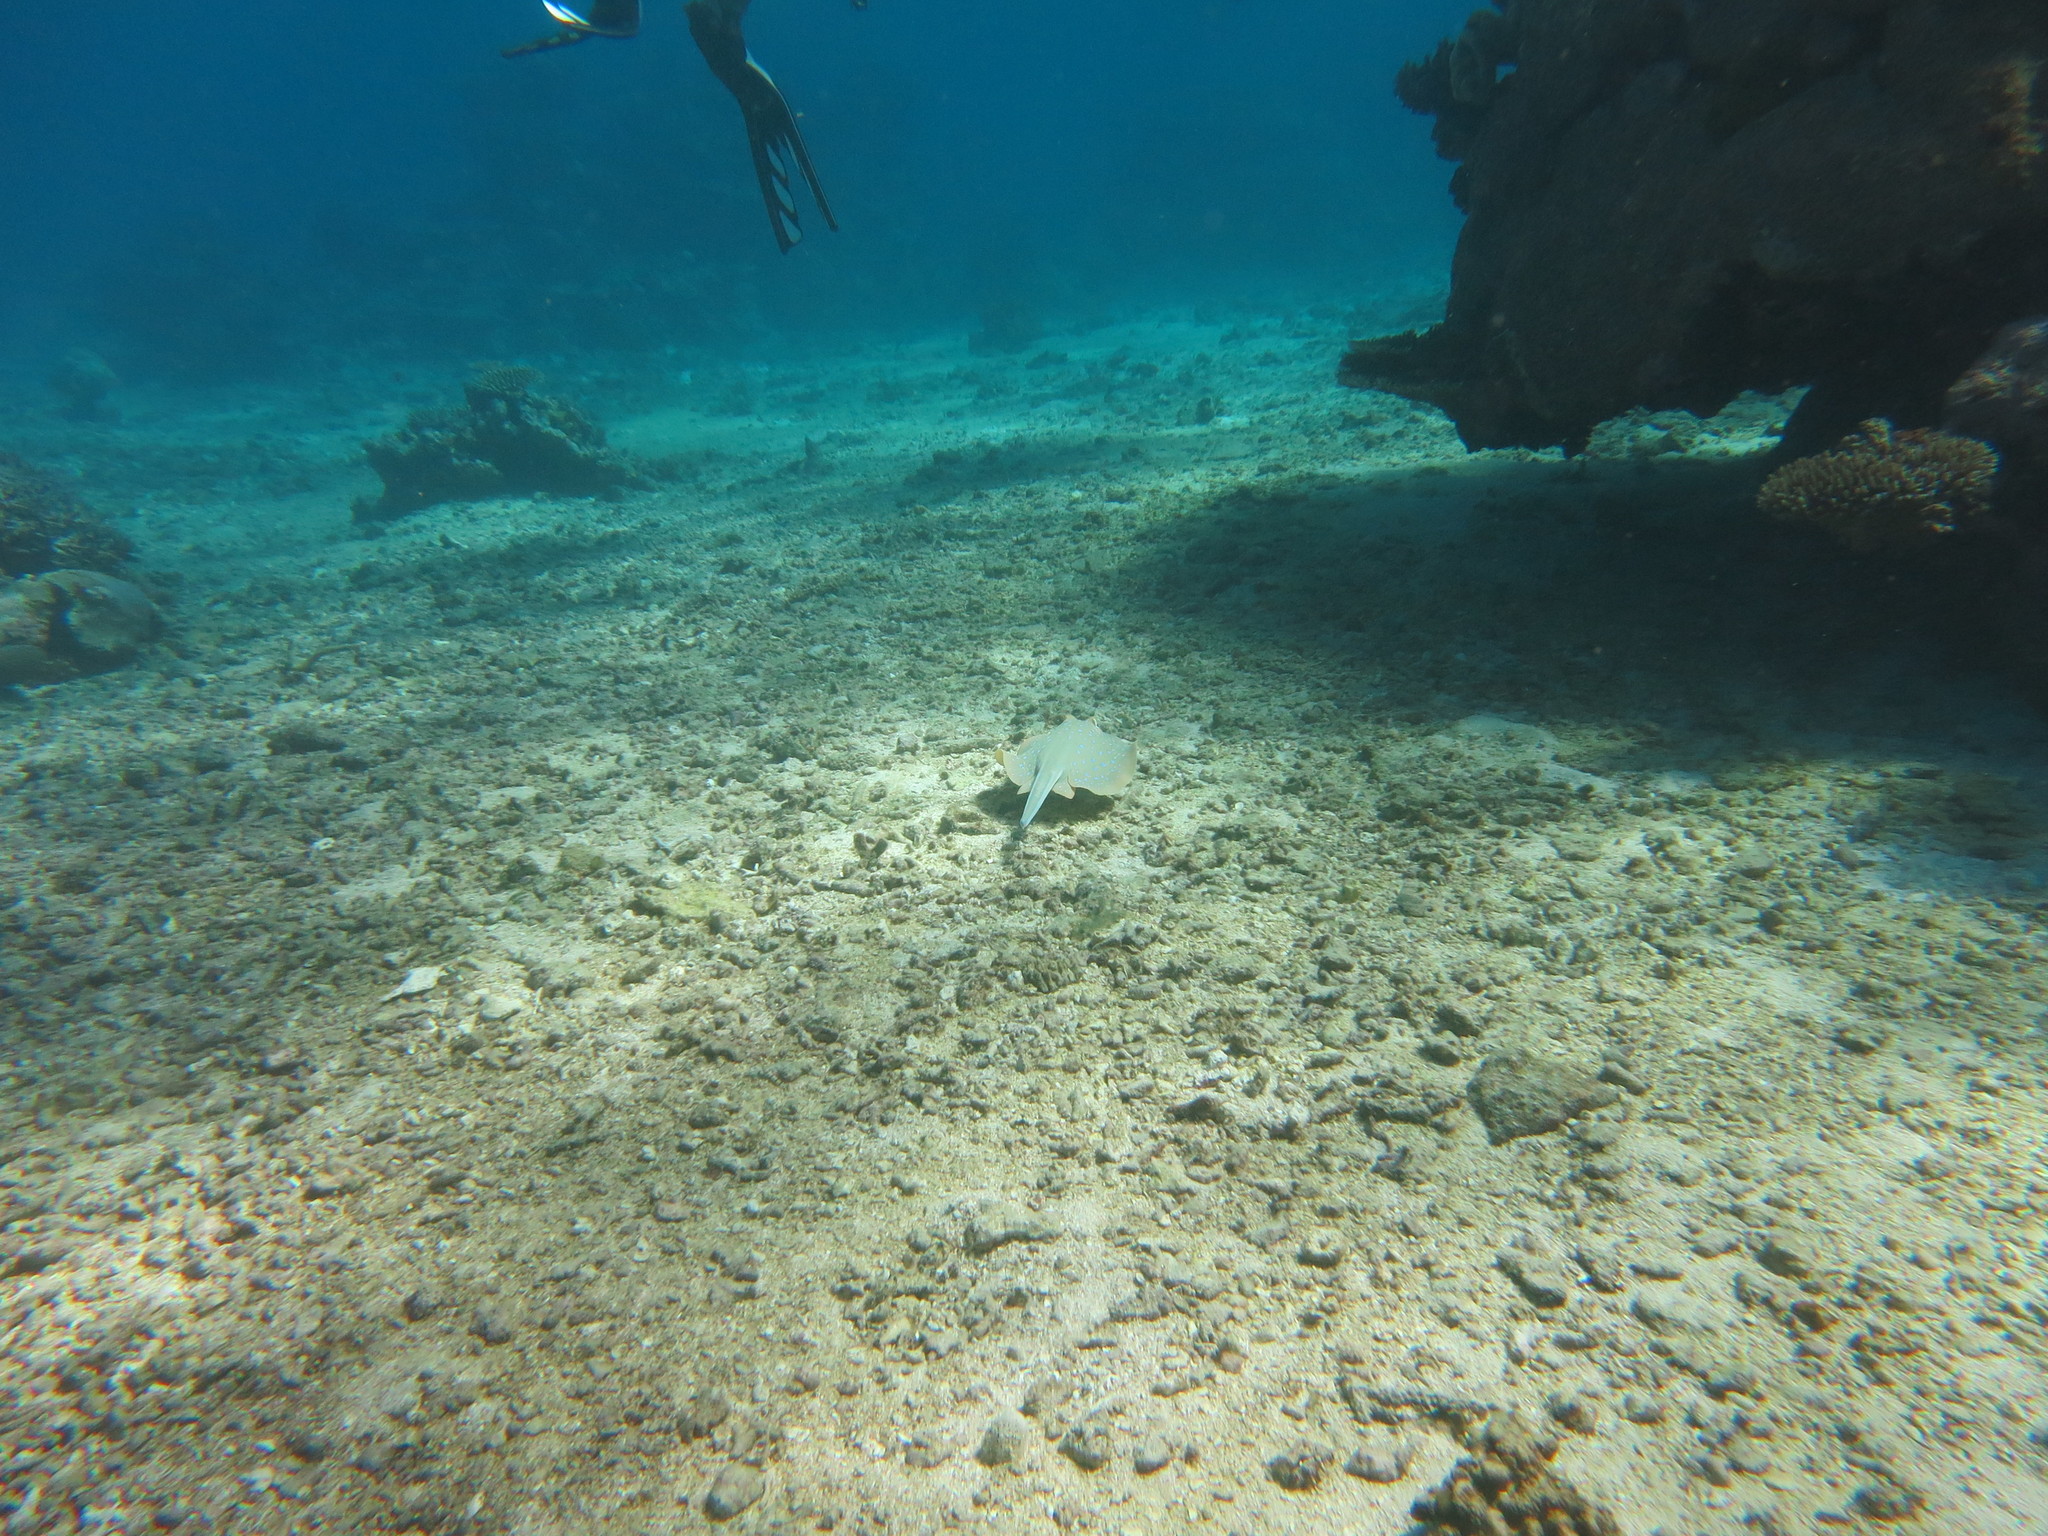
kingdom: Animalia
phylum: Chordata
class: Elasmobranchii
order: Myliobatiformes
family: Dasyatidae
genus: Taeniura
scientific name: Taeniura lymma
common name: Bluespotted ribbontail ray
